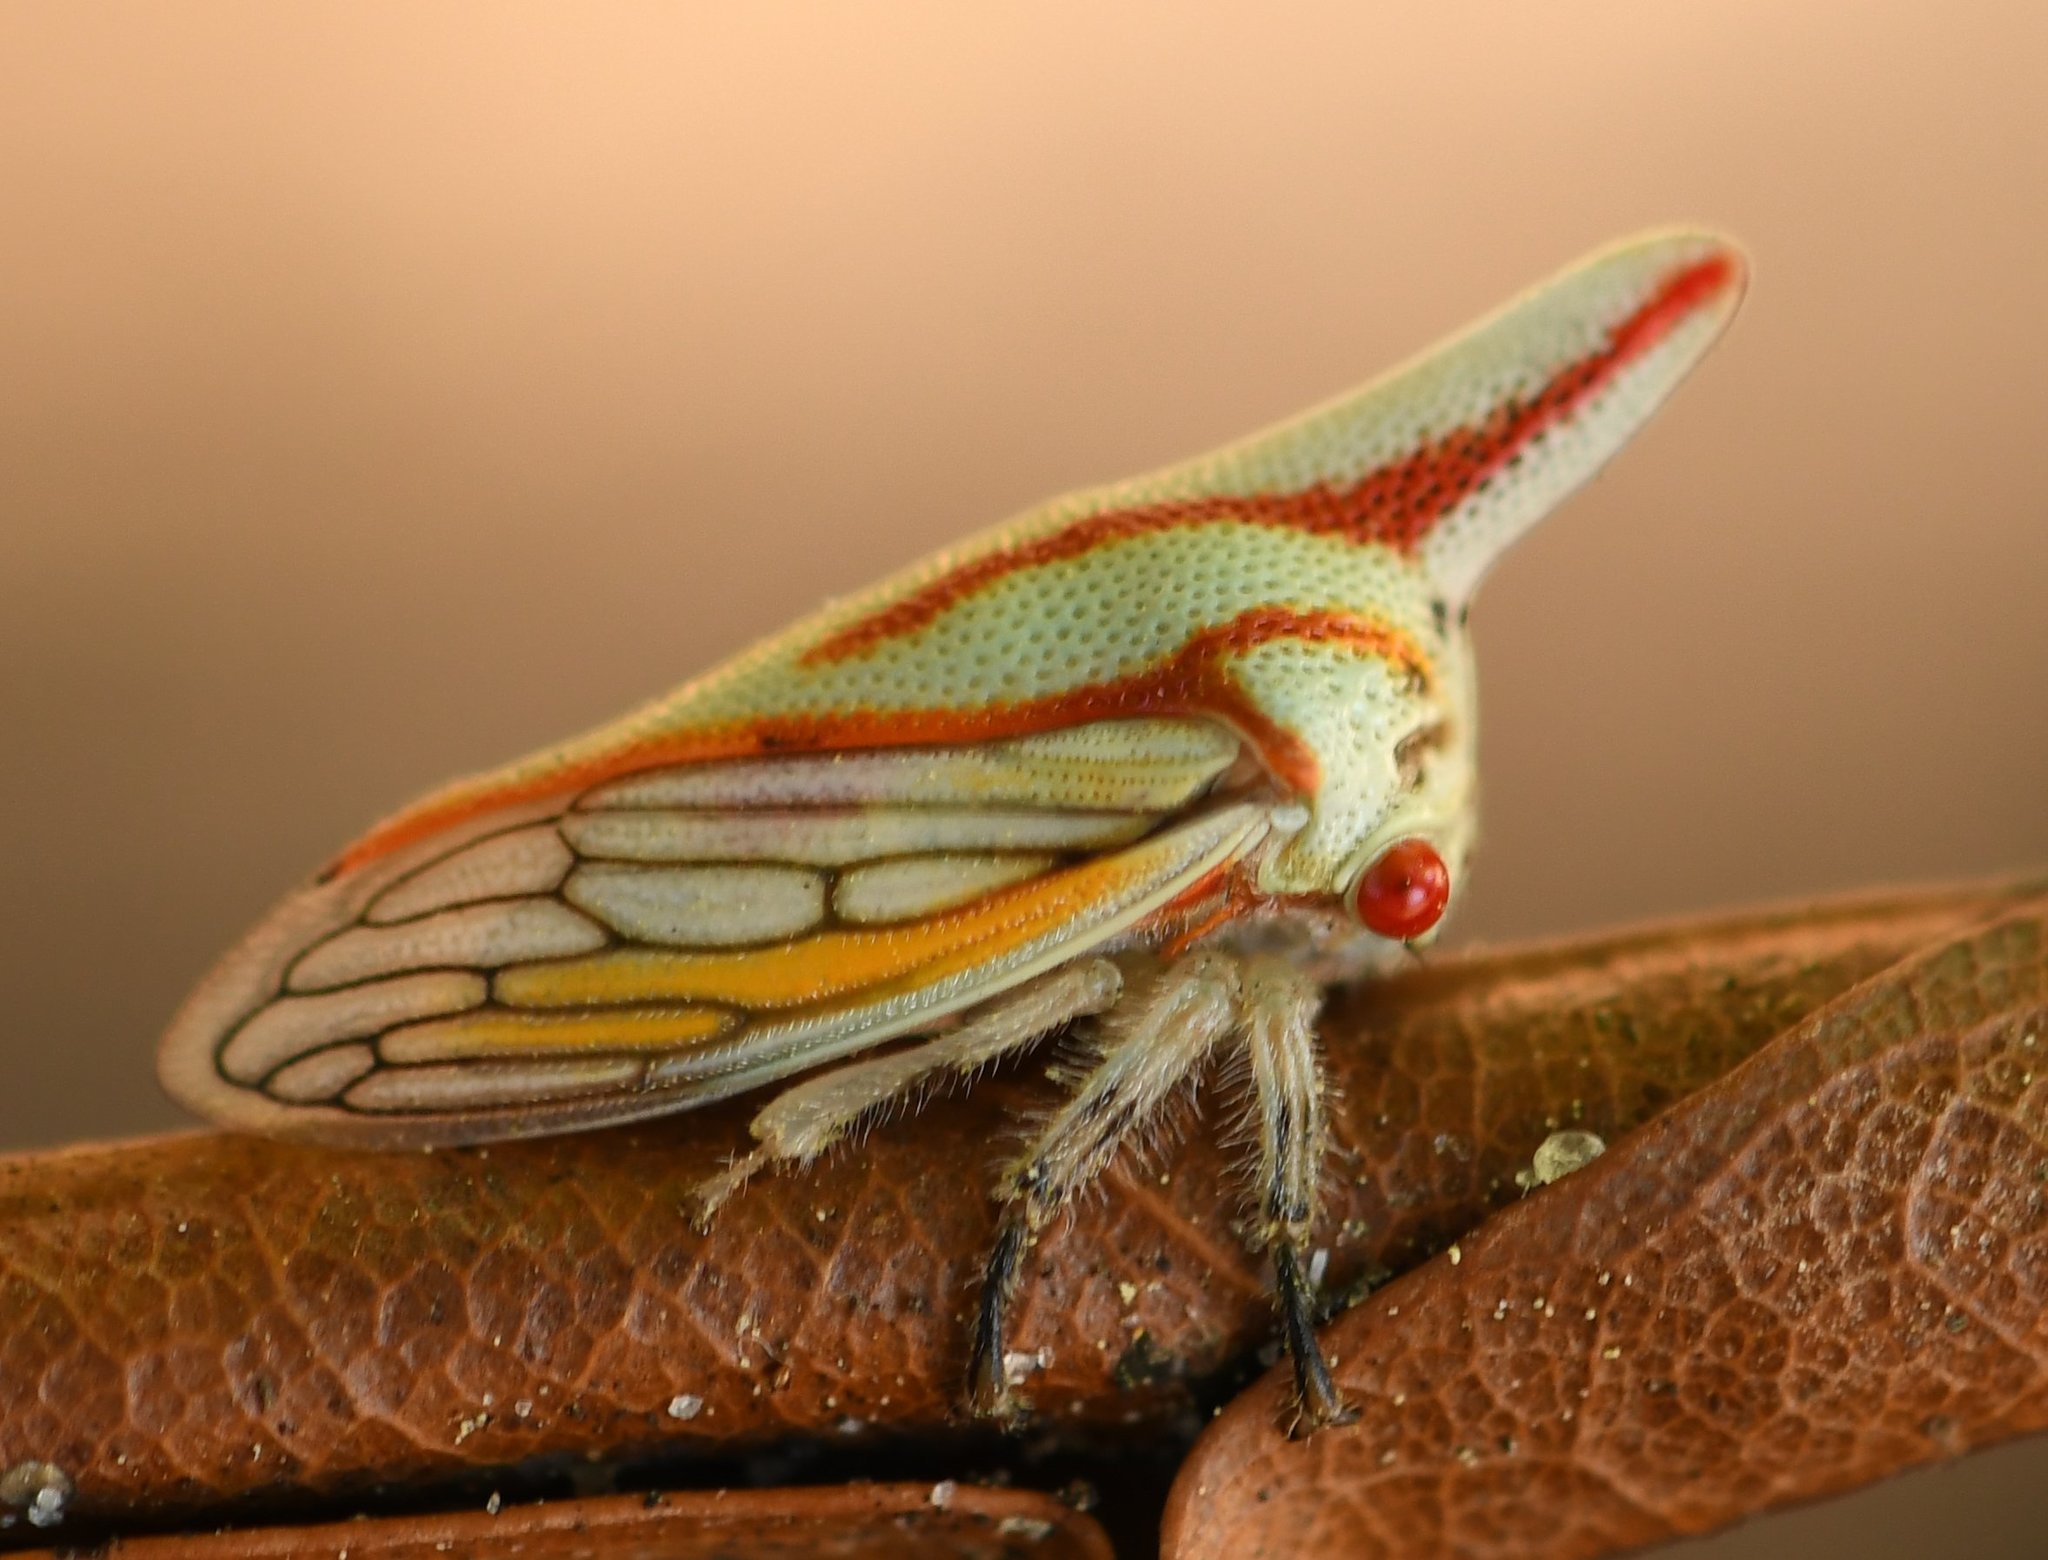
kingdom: Animalia
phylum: Arthropoda
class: Insecta
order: Hemiptera
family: Membracidae
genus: Platycotis
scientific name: Platycotis vittatus
